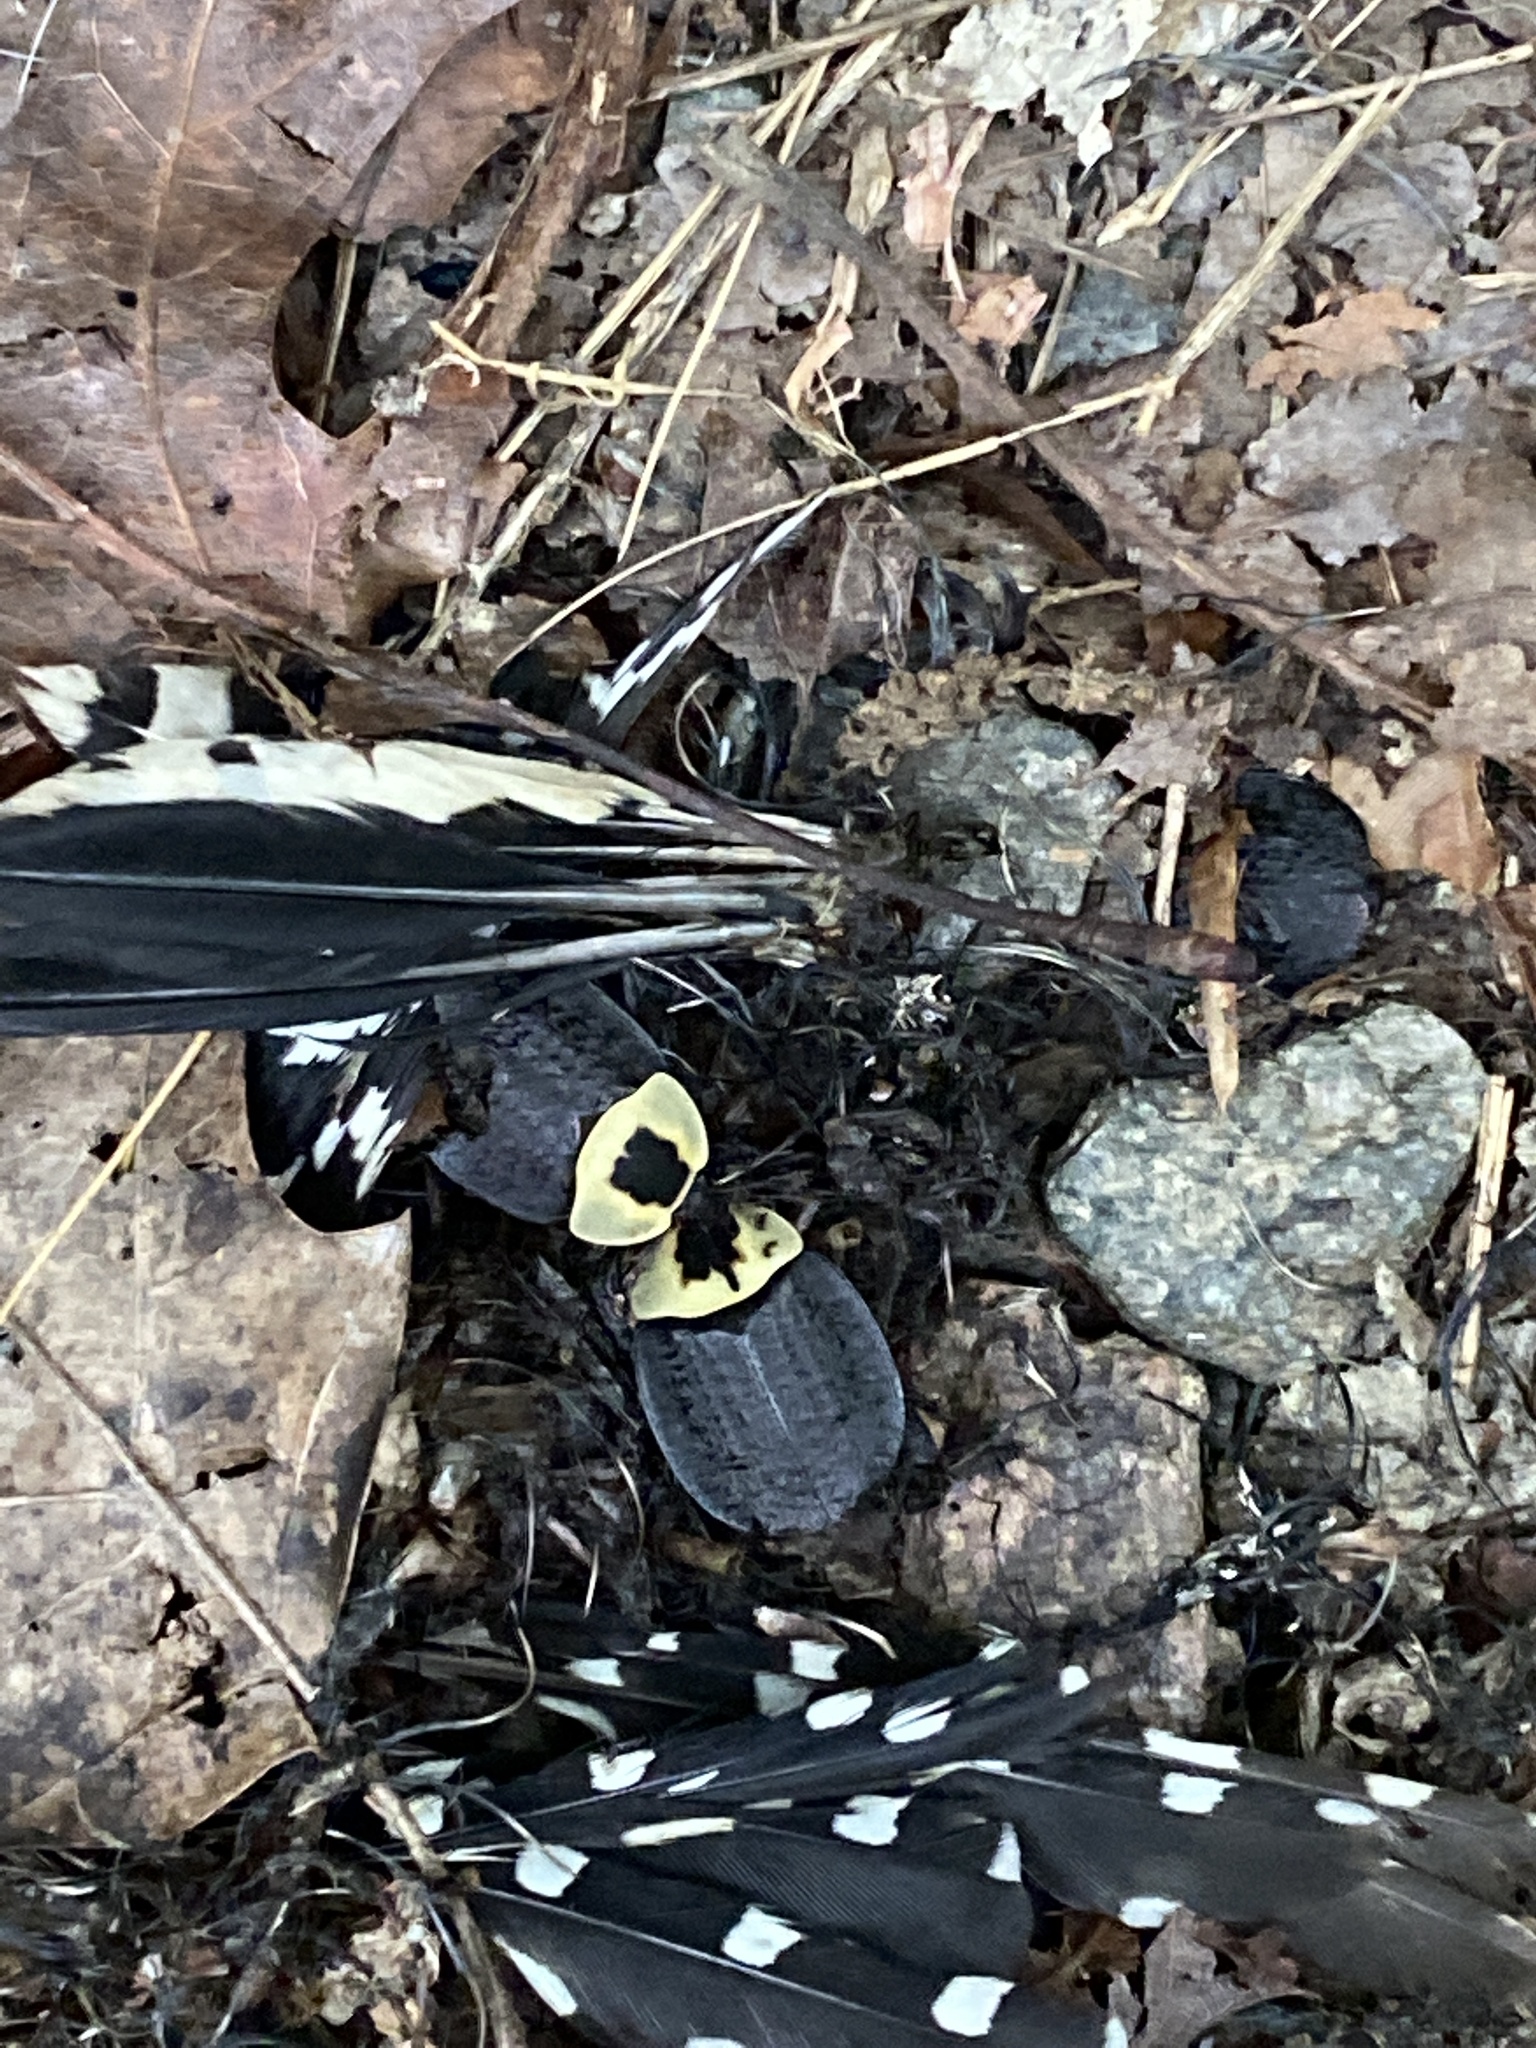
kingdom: Animalia
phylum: Arthropoda
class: Insecta
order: Coleoptera
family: Staphylinidae
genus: Necrophila
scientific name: Necrophila americana
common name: American carrion beetle
